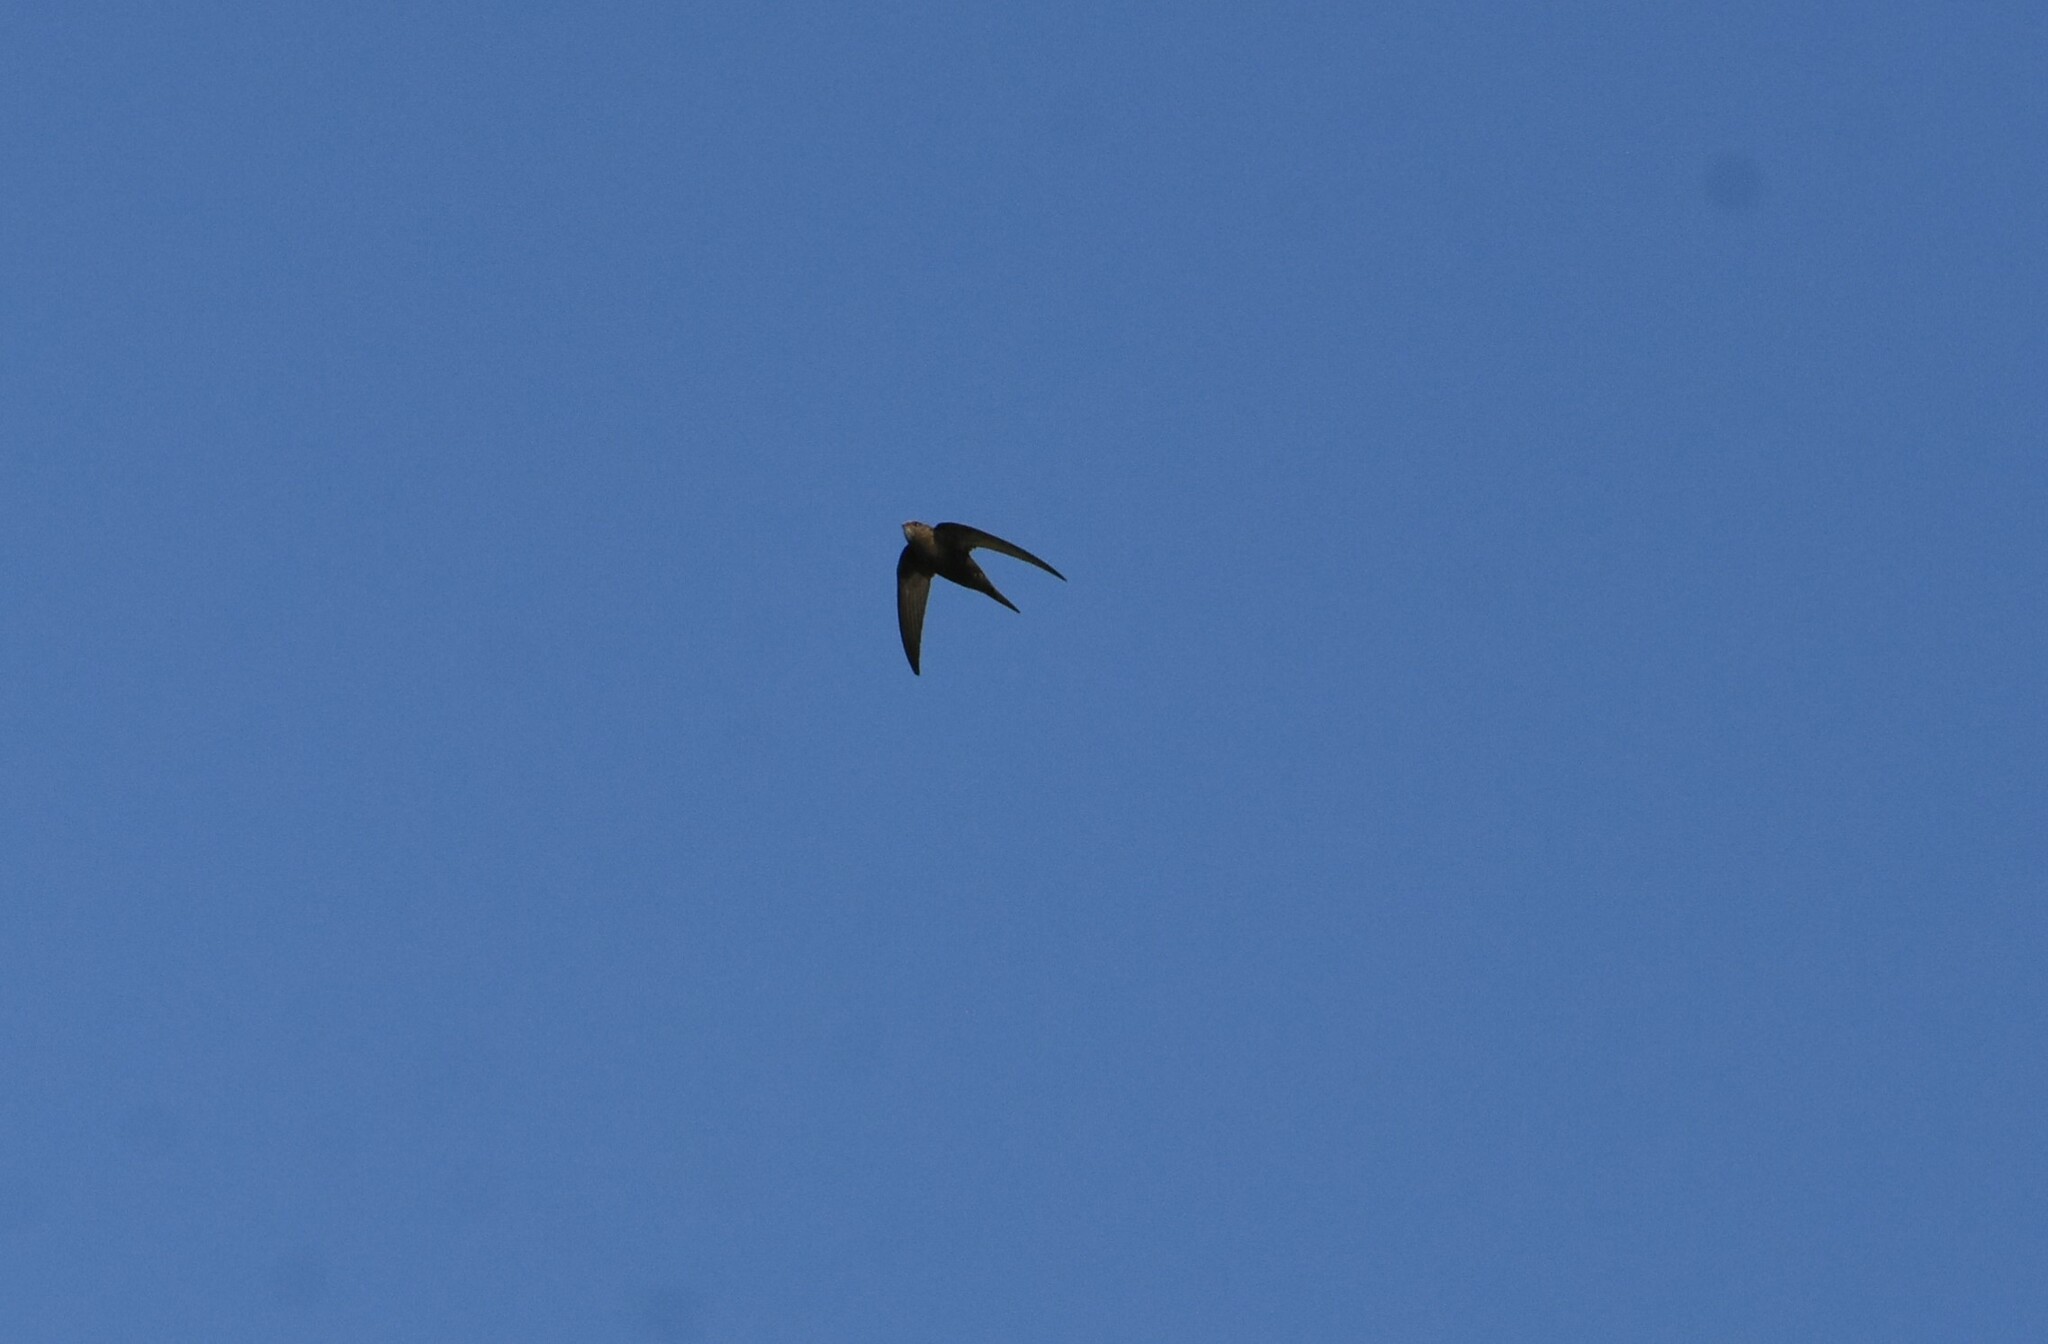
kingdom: Animalia
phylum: Chordata
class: Aves
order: Apodiformes
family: Apodidae
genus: Apus
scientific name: Apus apus
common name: Common swift
